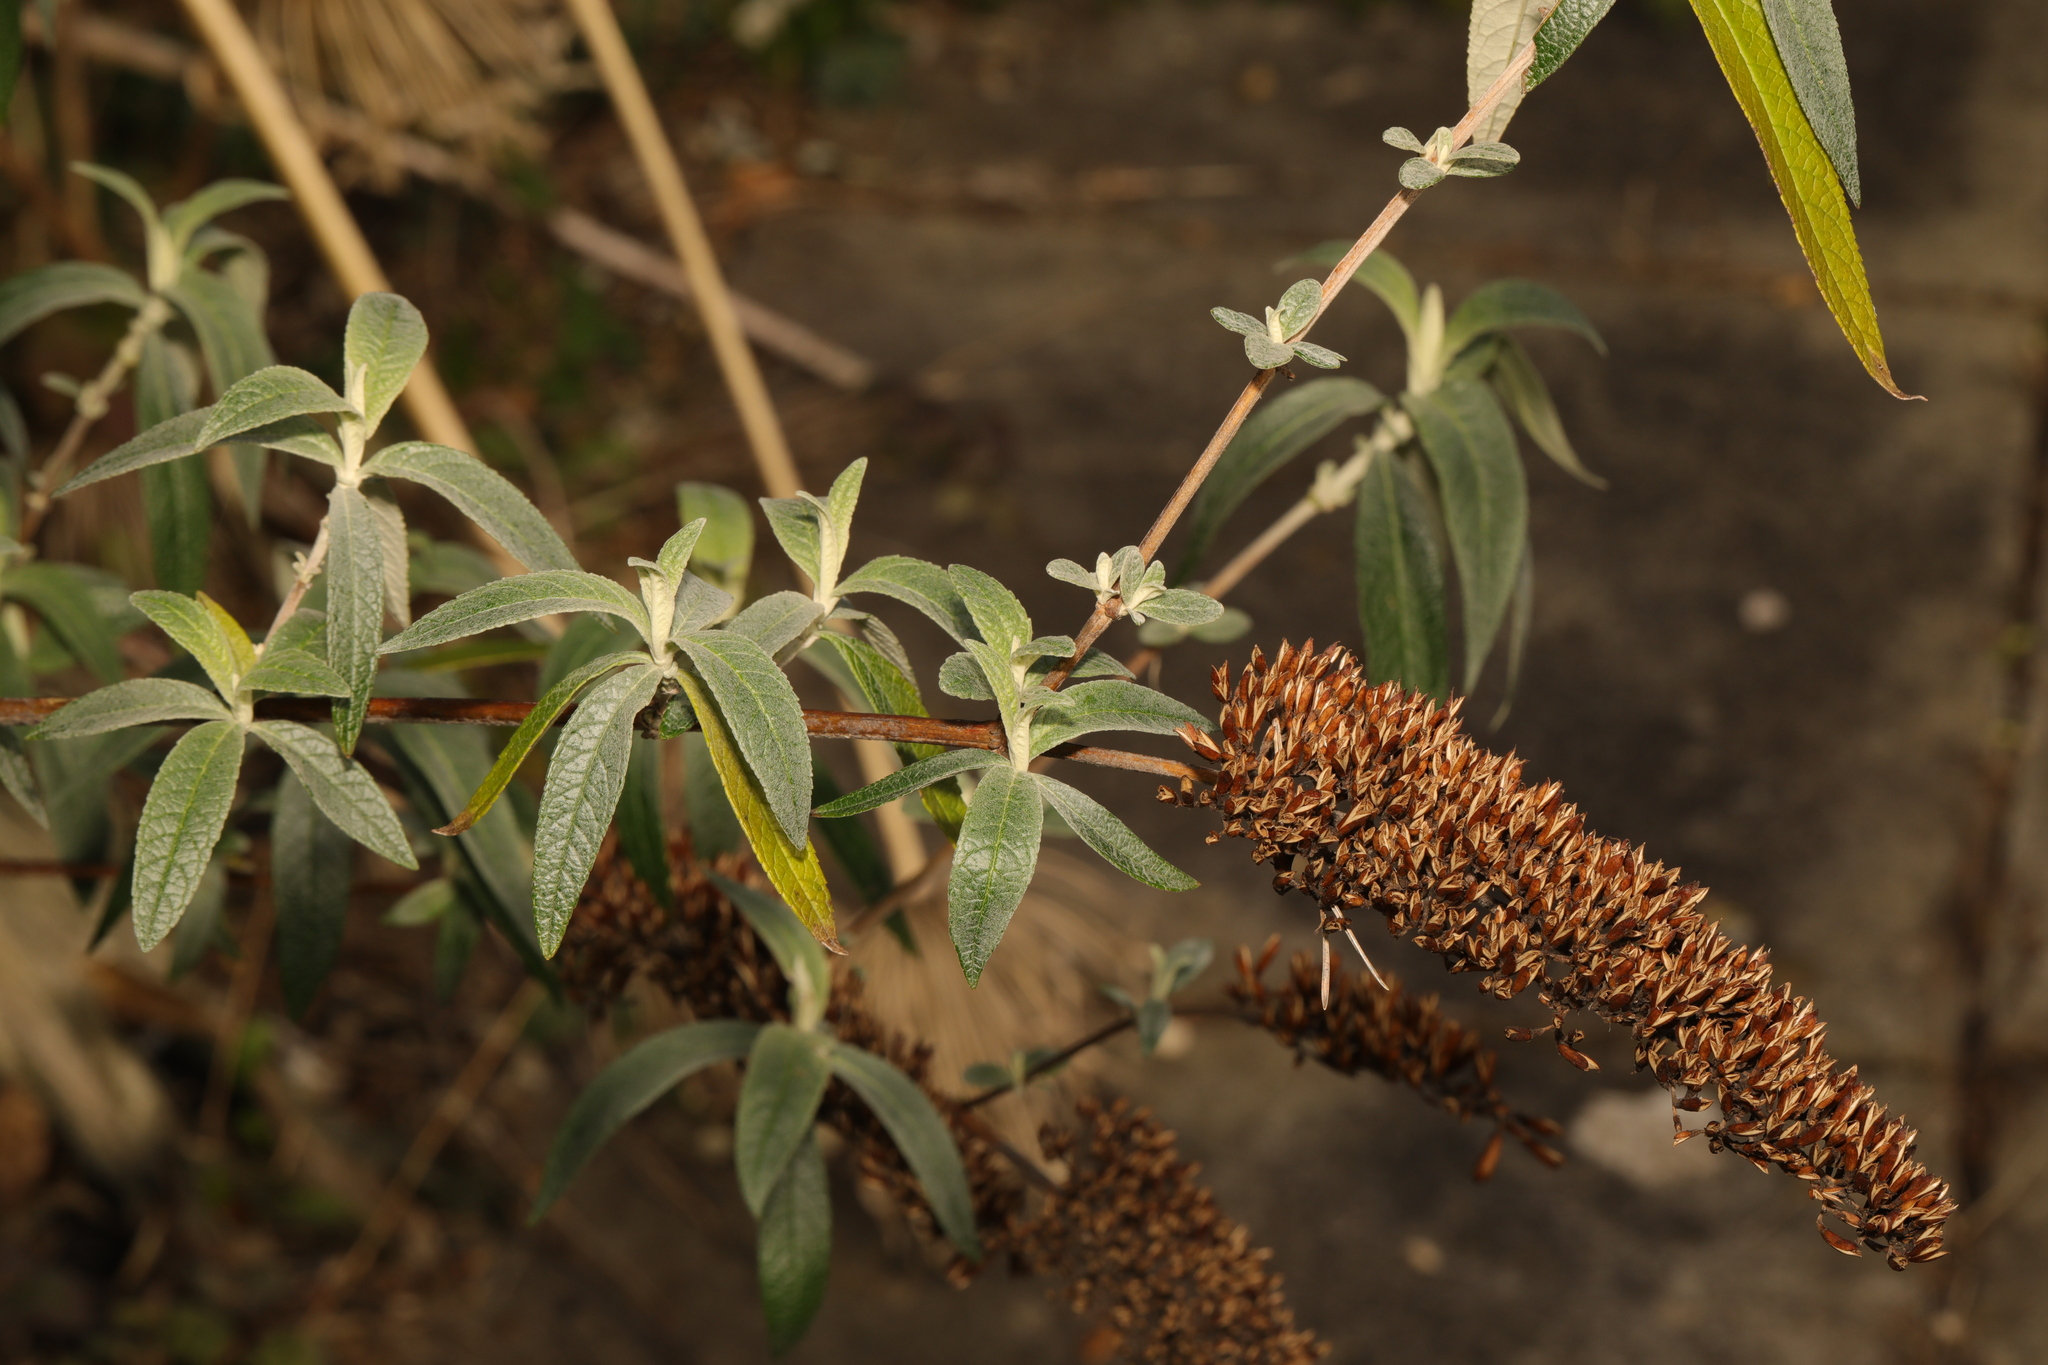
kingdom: Plantae
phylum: Tracheophyta
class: Magnoliopsida
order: Lamiales
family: Scrophulariaceae
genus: Buddleja
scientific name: Buddleja davidii
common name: Butterfly-bush
